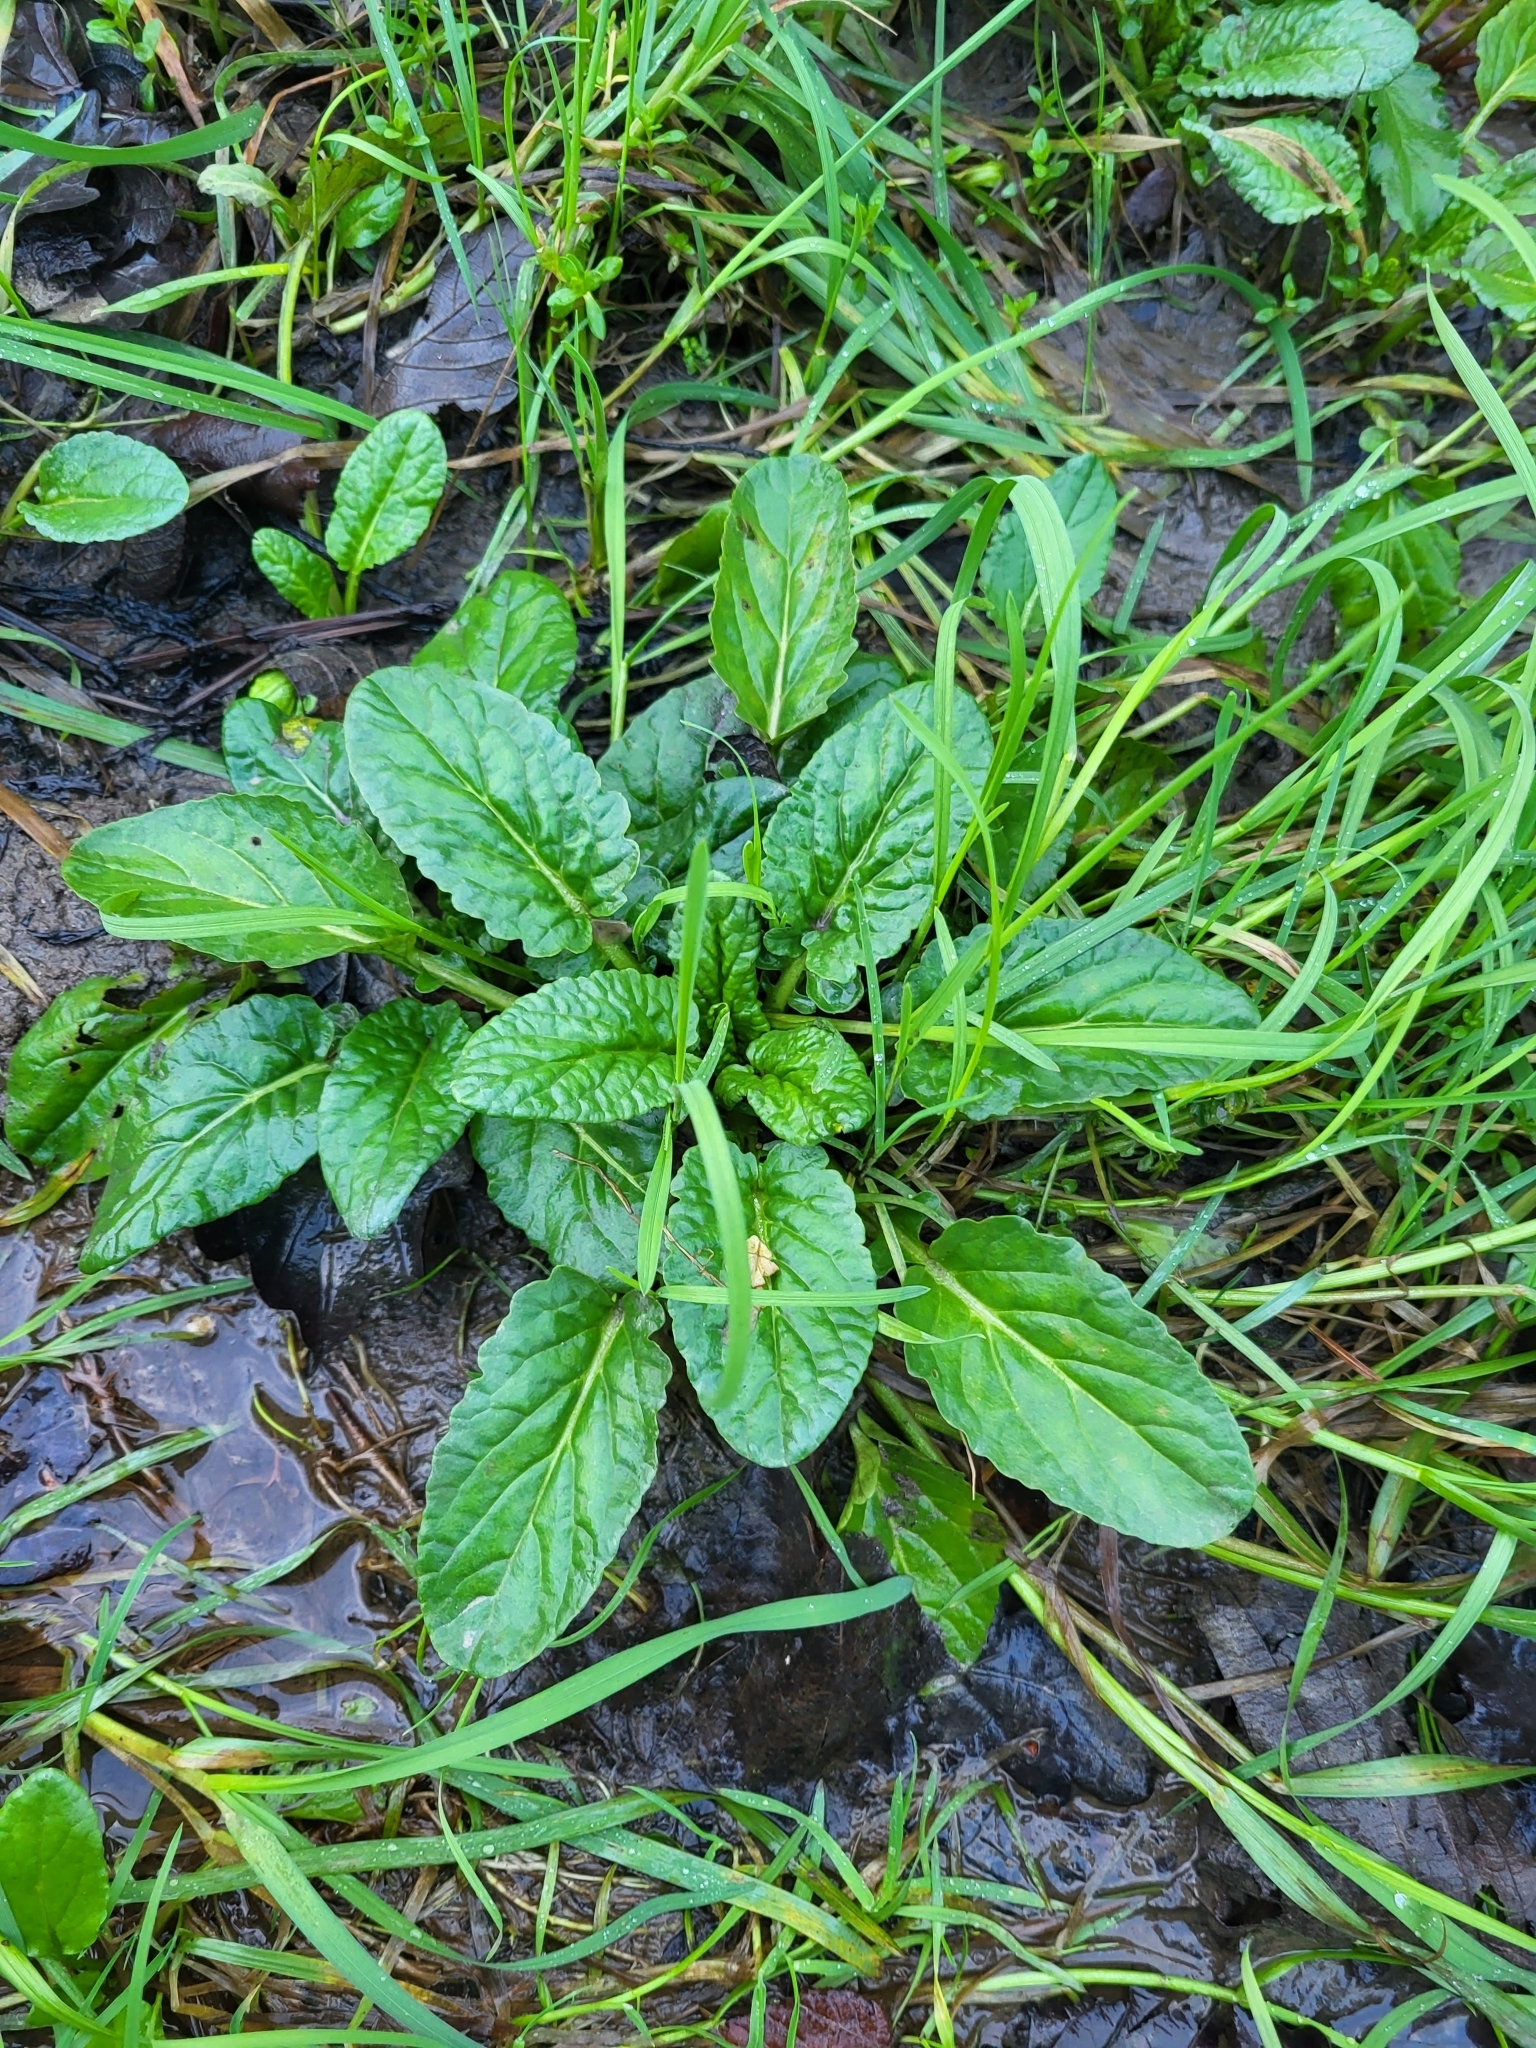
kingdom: Plantae
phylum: Tracheophyta
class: Magnoliopsida
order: Asterales
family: Asteraceae
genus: Jacobaea
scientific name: Jacobaea aquatica
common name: Water ragwort
